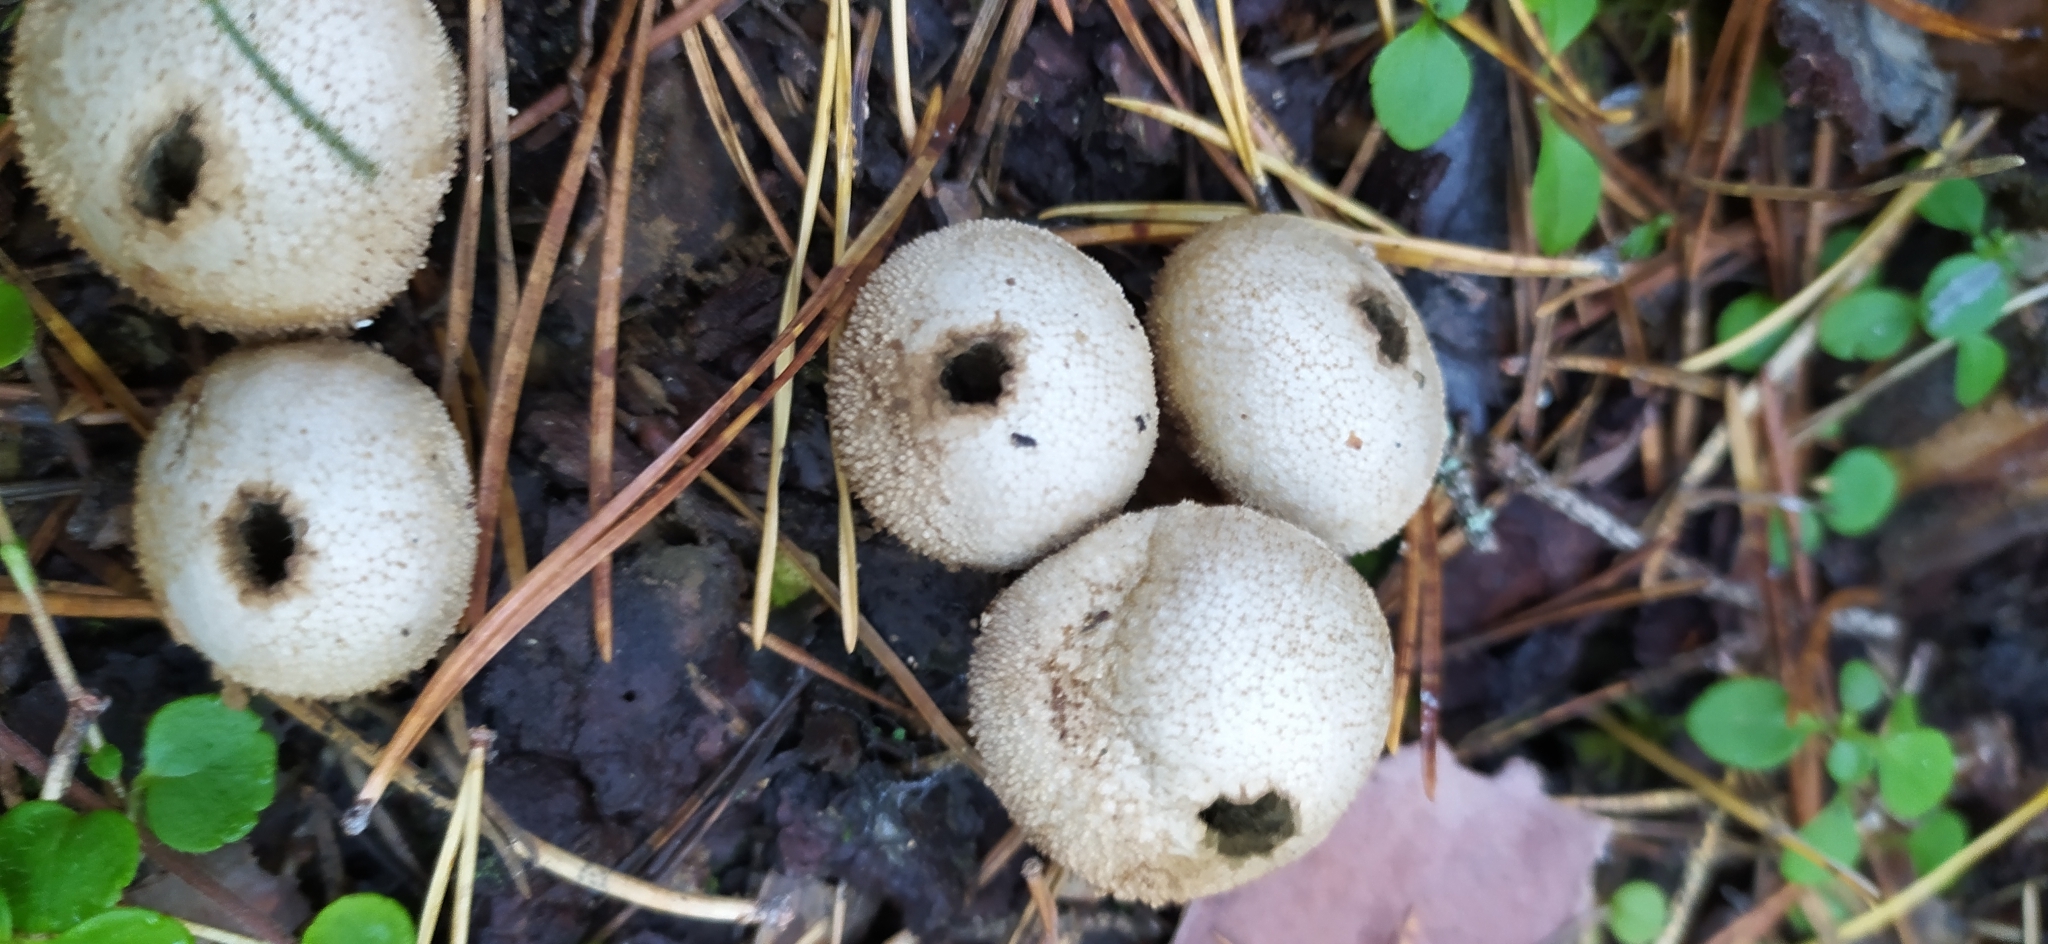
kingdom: Fungi
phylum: Basidiomycota
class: Agaricomycetes
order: Agaricales
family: Lycoperdaceae
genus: Lycoperdon
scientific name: Lycoperdon perlatum
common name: Common puffball
